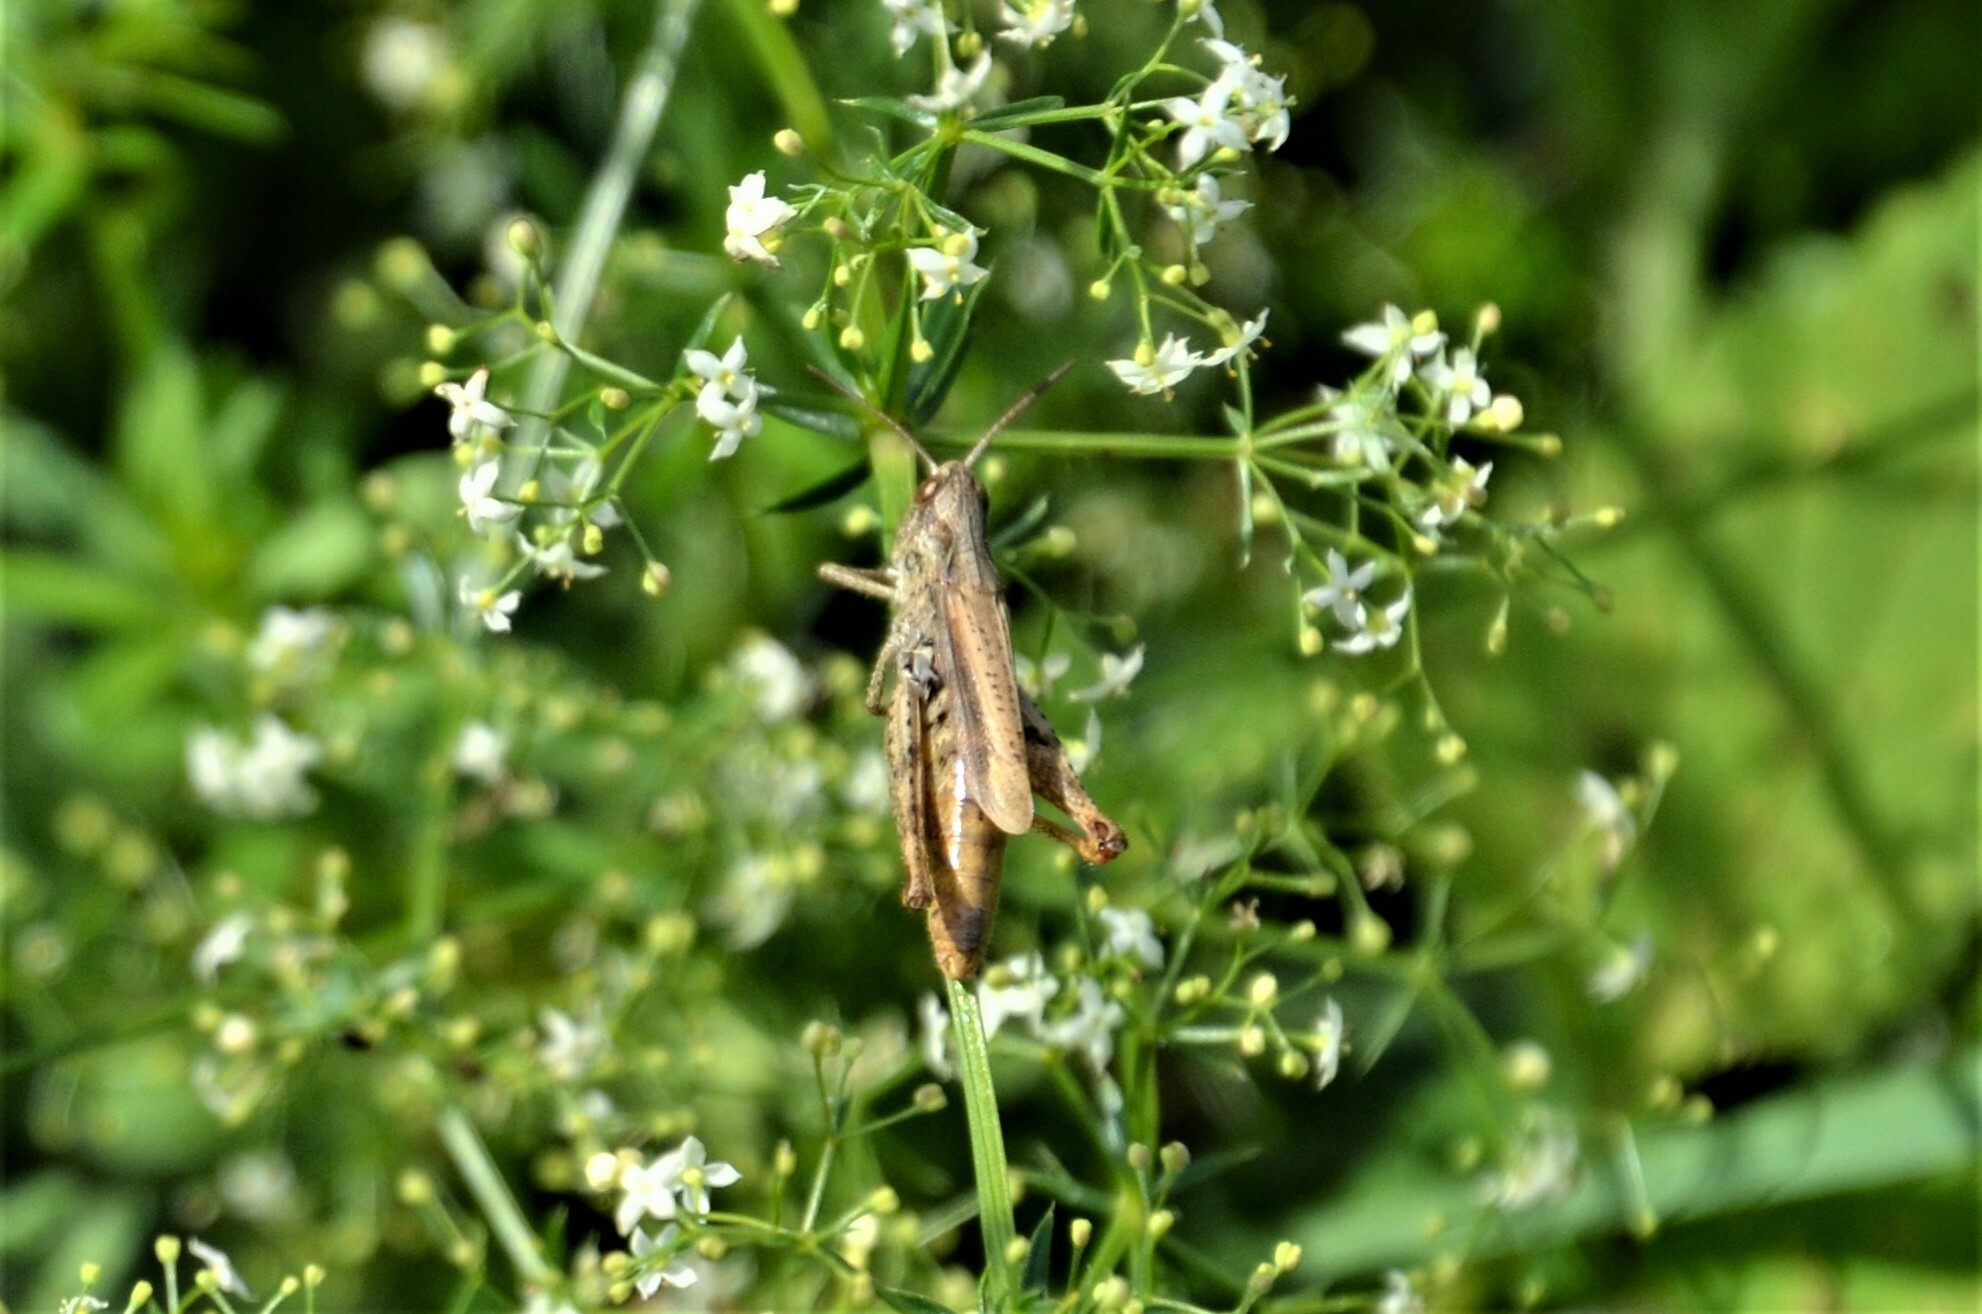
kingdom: Animalia
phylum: Arthropoda
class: Insecta
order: Orthoptera
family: Acrididae
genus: Chorthippus
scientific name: Chorthippus apricarius
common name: Upland field grasshopper
